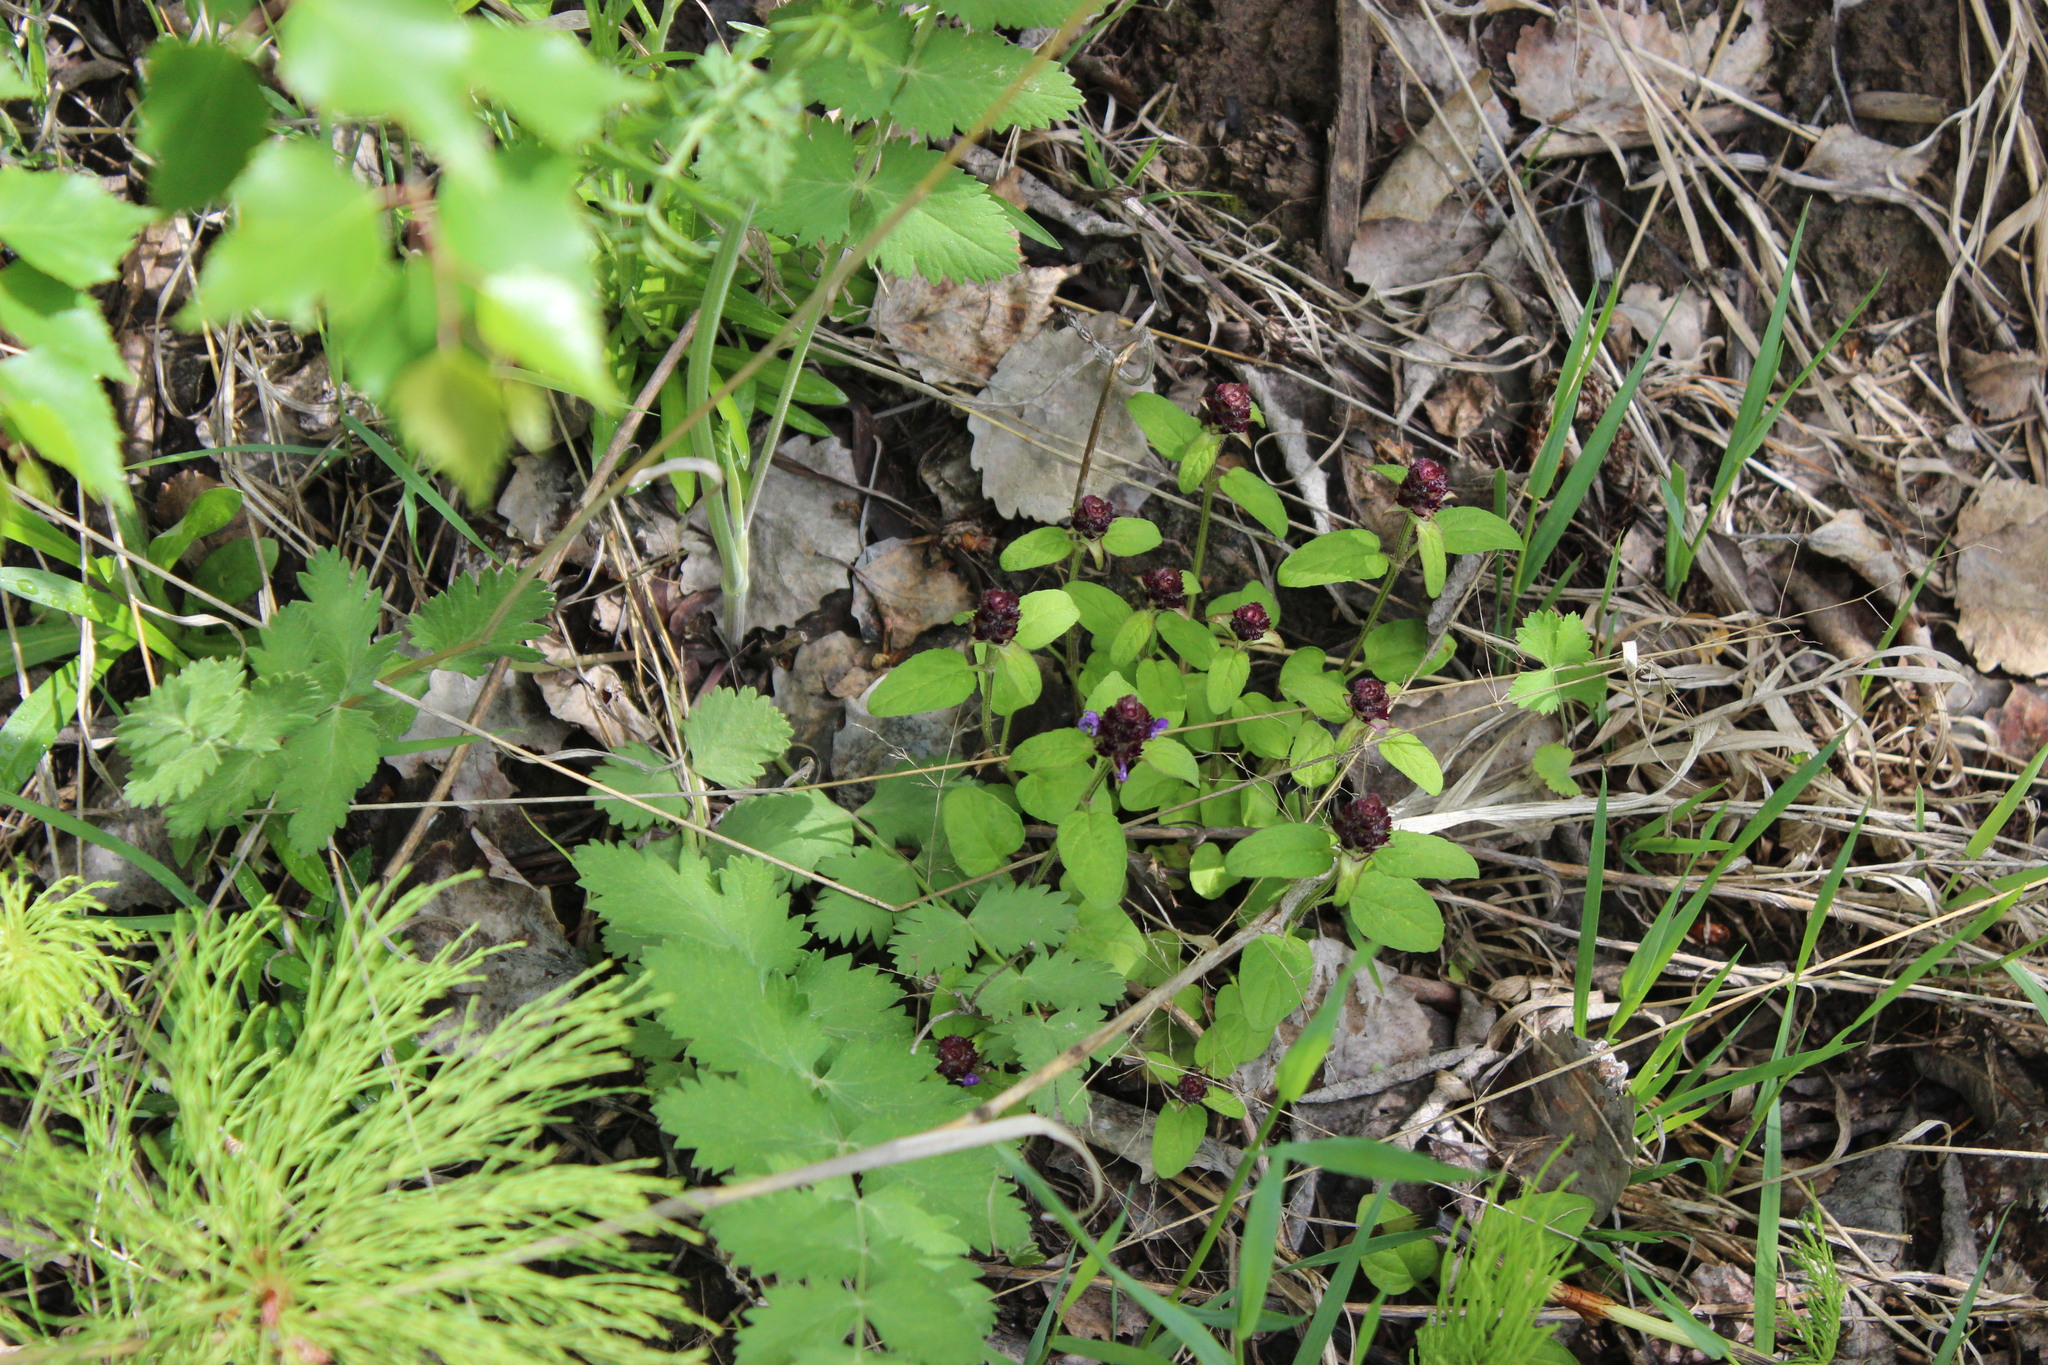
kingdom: Plantae
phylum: Tracheophyta
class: Magnoliopsida
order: Lamiales
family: Lamiaceae
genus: Prunella
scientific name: Prunella vulgaris
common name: Heal-all
